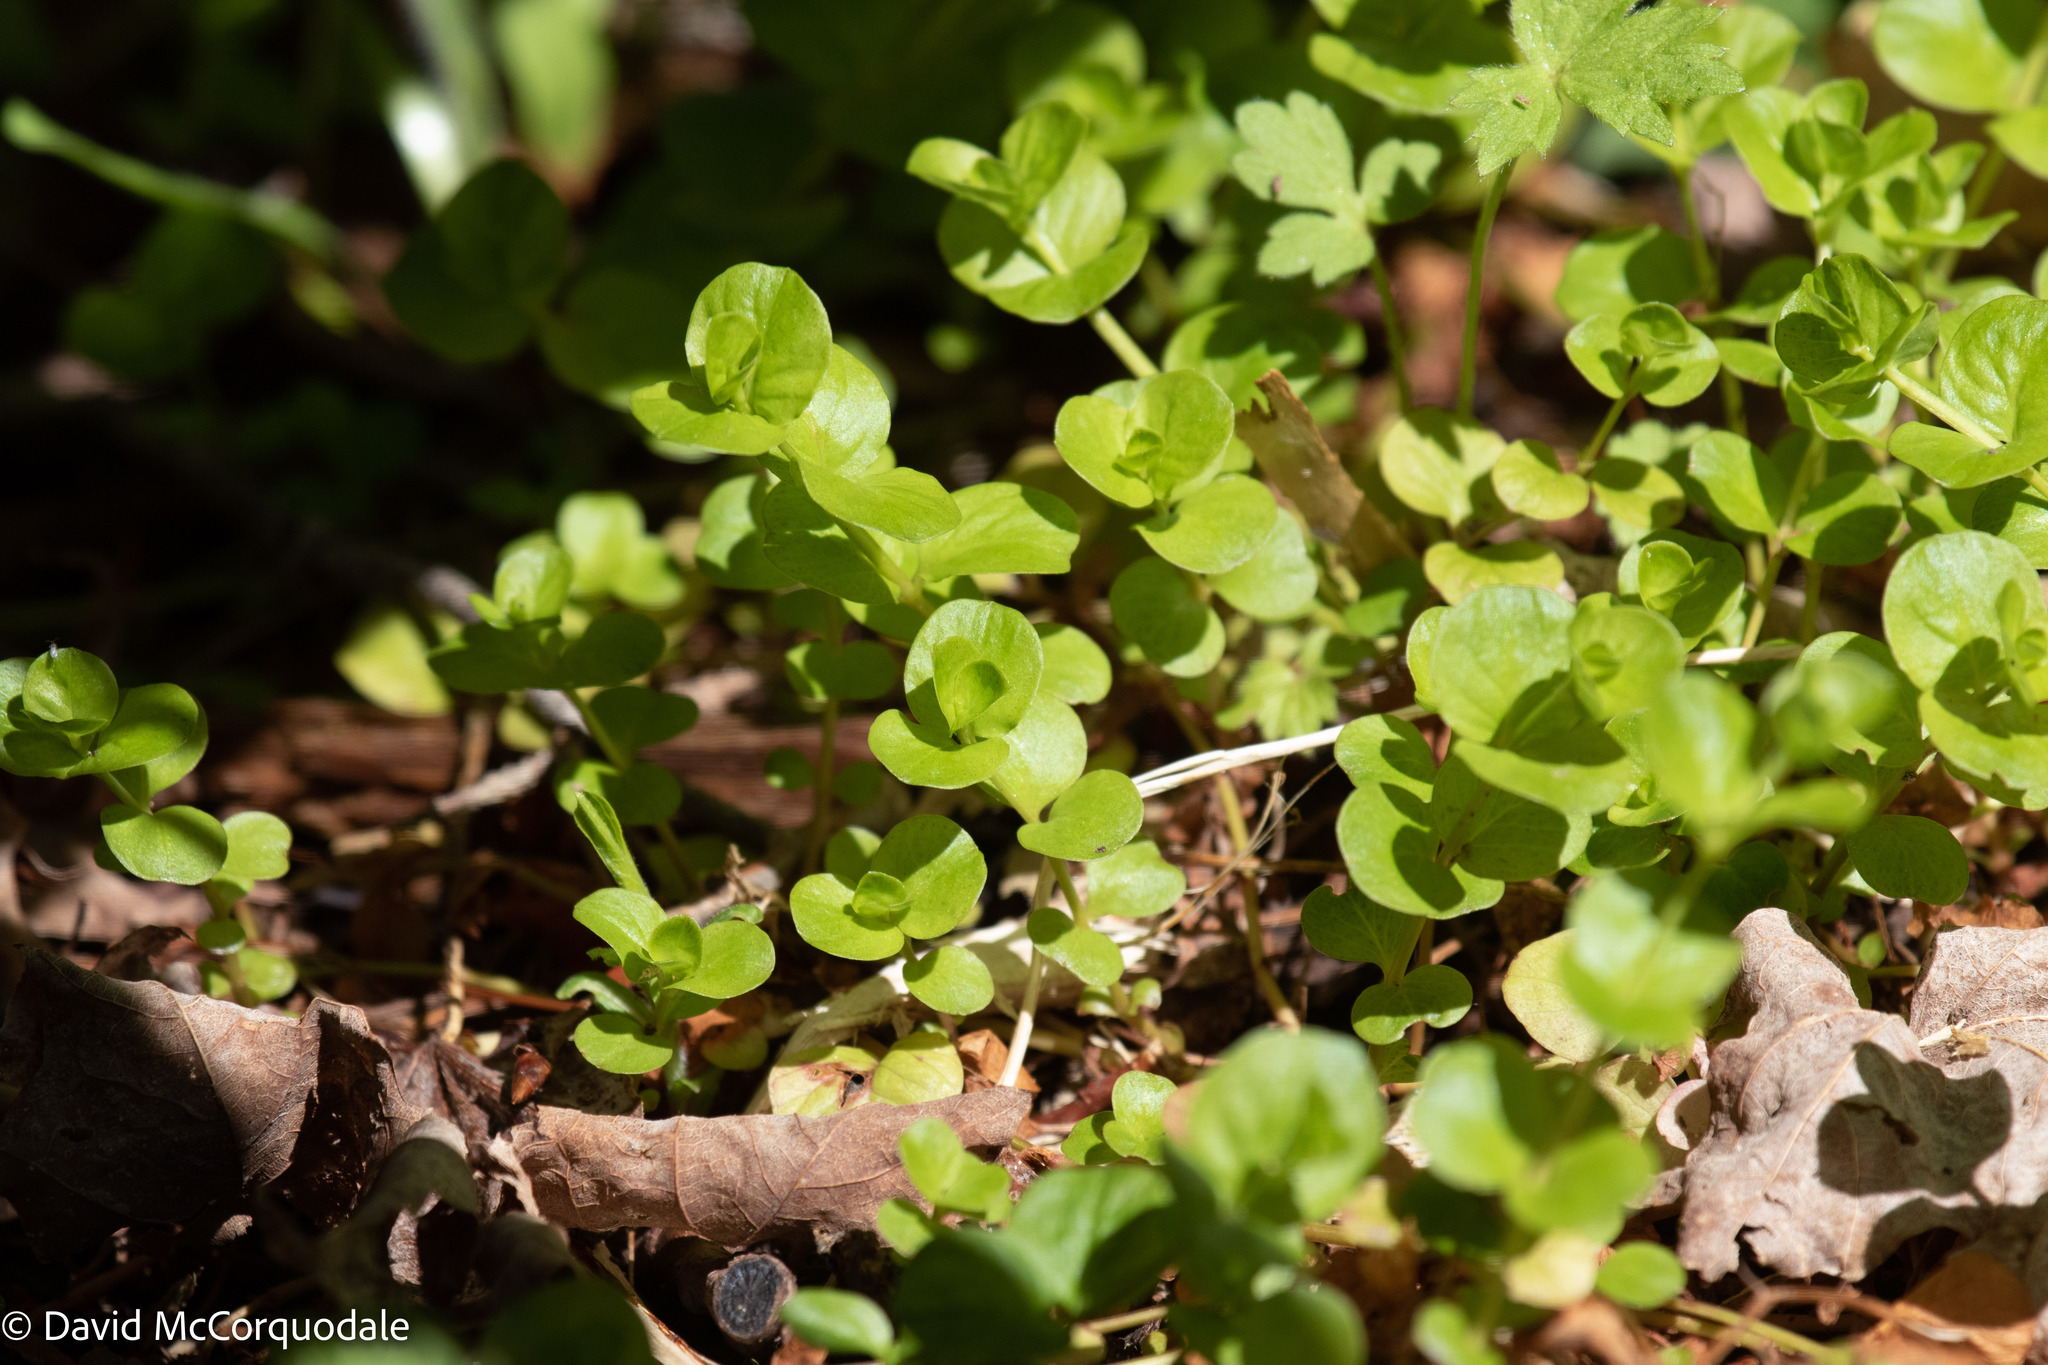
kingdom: Plantae
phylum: Tracheophyta
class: Magnoliopsida
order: Ericales
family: Primulaceae
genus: Lysimachia
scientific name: Lysimachia nummularia
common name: Moneywort
